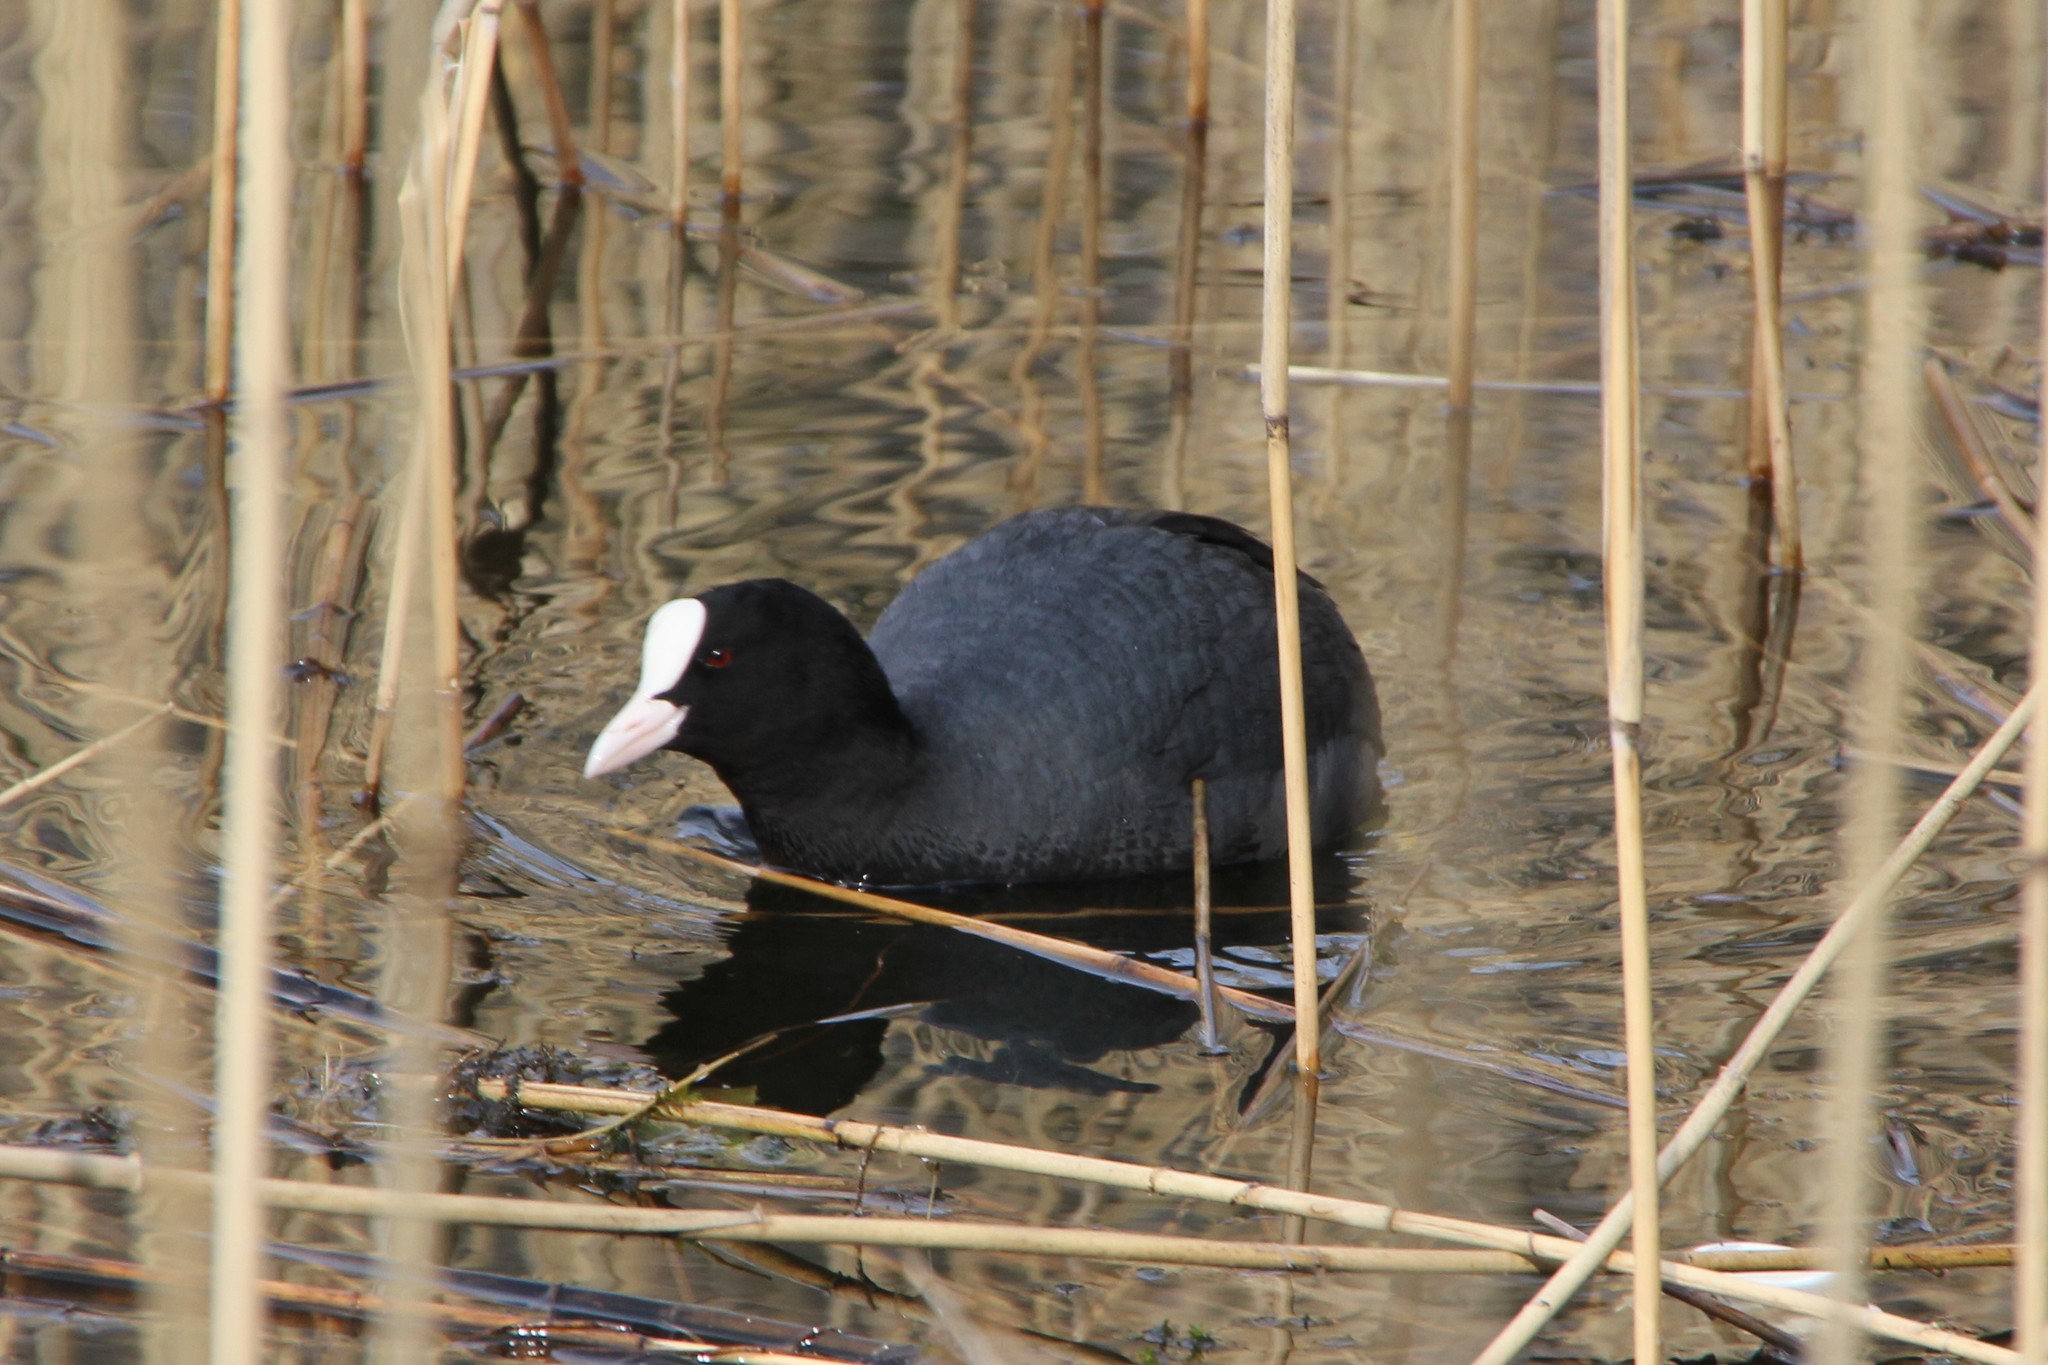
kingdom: Animalia
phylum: Chordata
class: Aves
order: Gruiformes
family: Rallidae
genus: Fulica
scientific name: Fulica atra
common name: Eurasian coot
